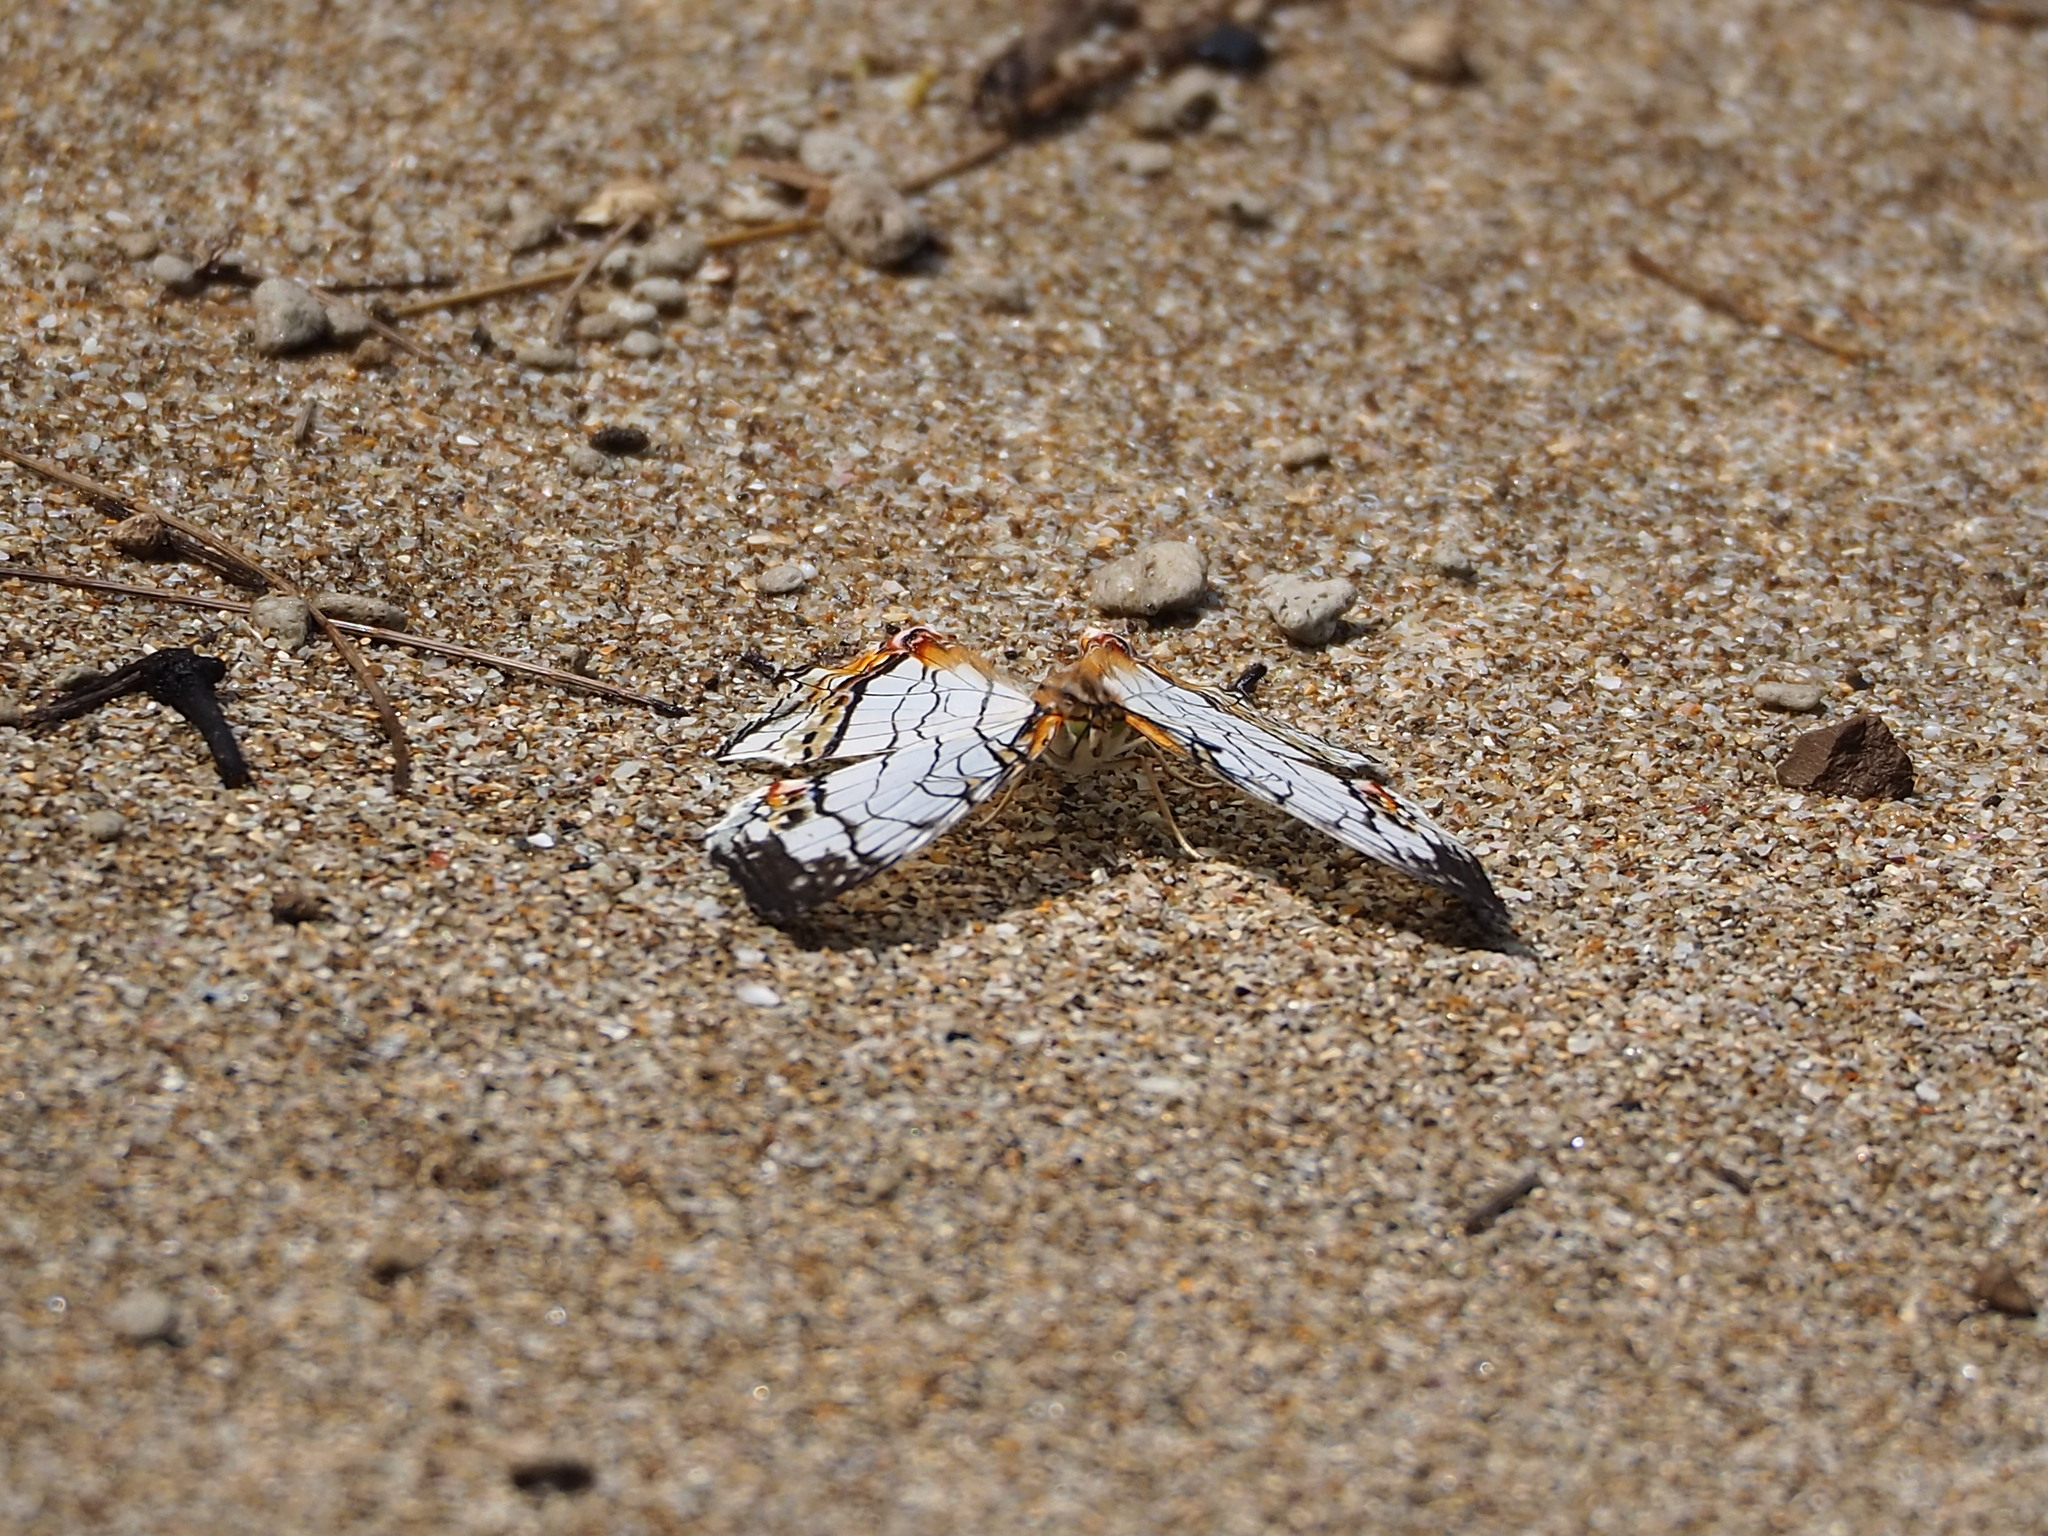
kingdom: Animalia
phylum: Arthropoda
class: Insecta
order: Lepidoptera
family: Nymphalidae
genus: Cyrestis
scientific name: Cyrestis thyodamas
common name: Common mapwing
